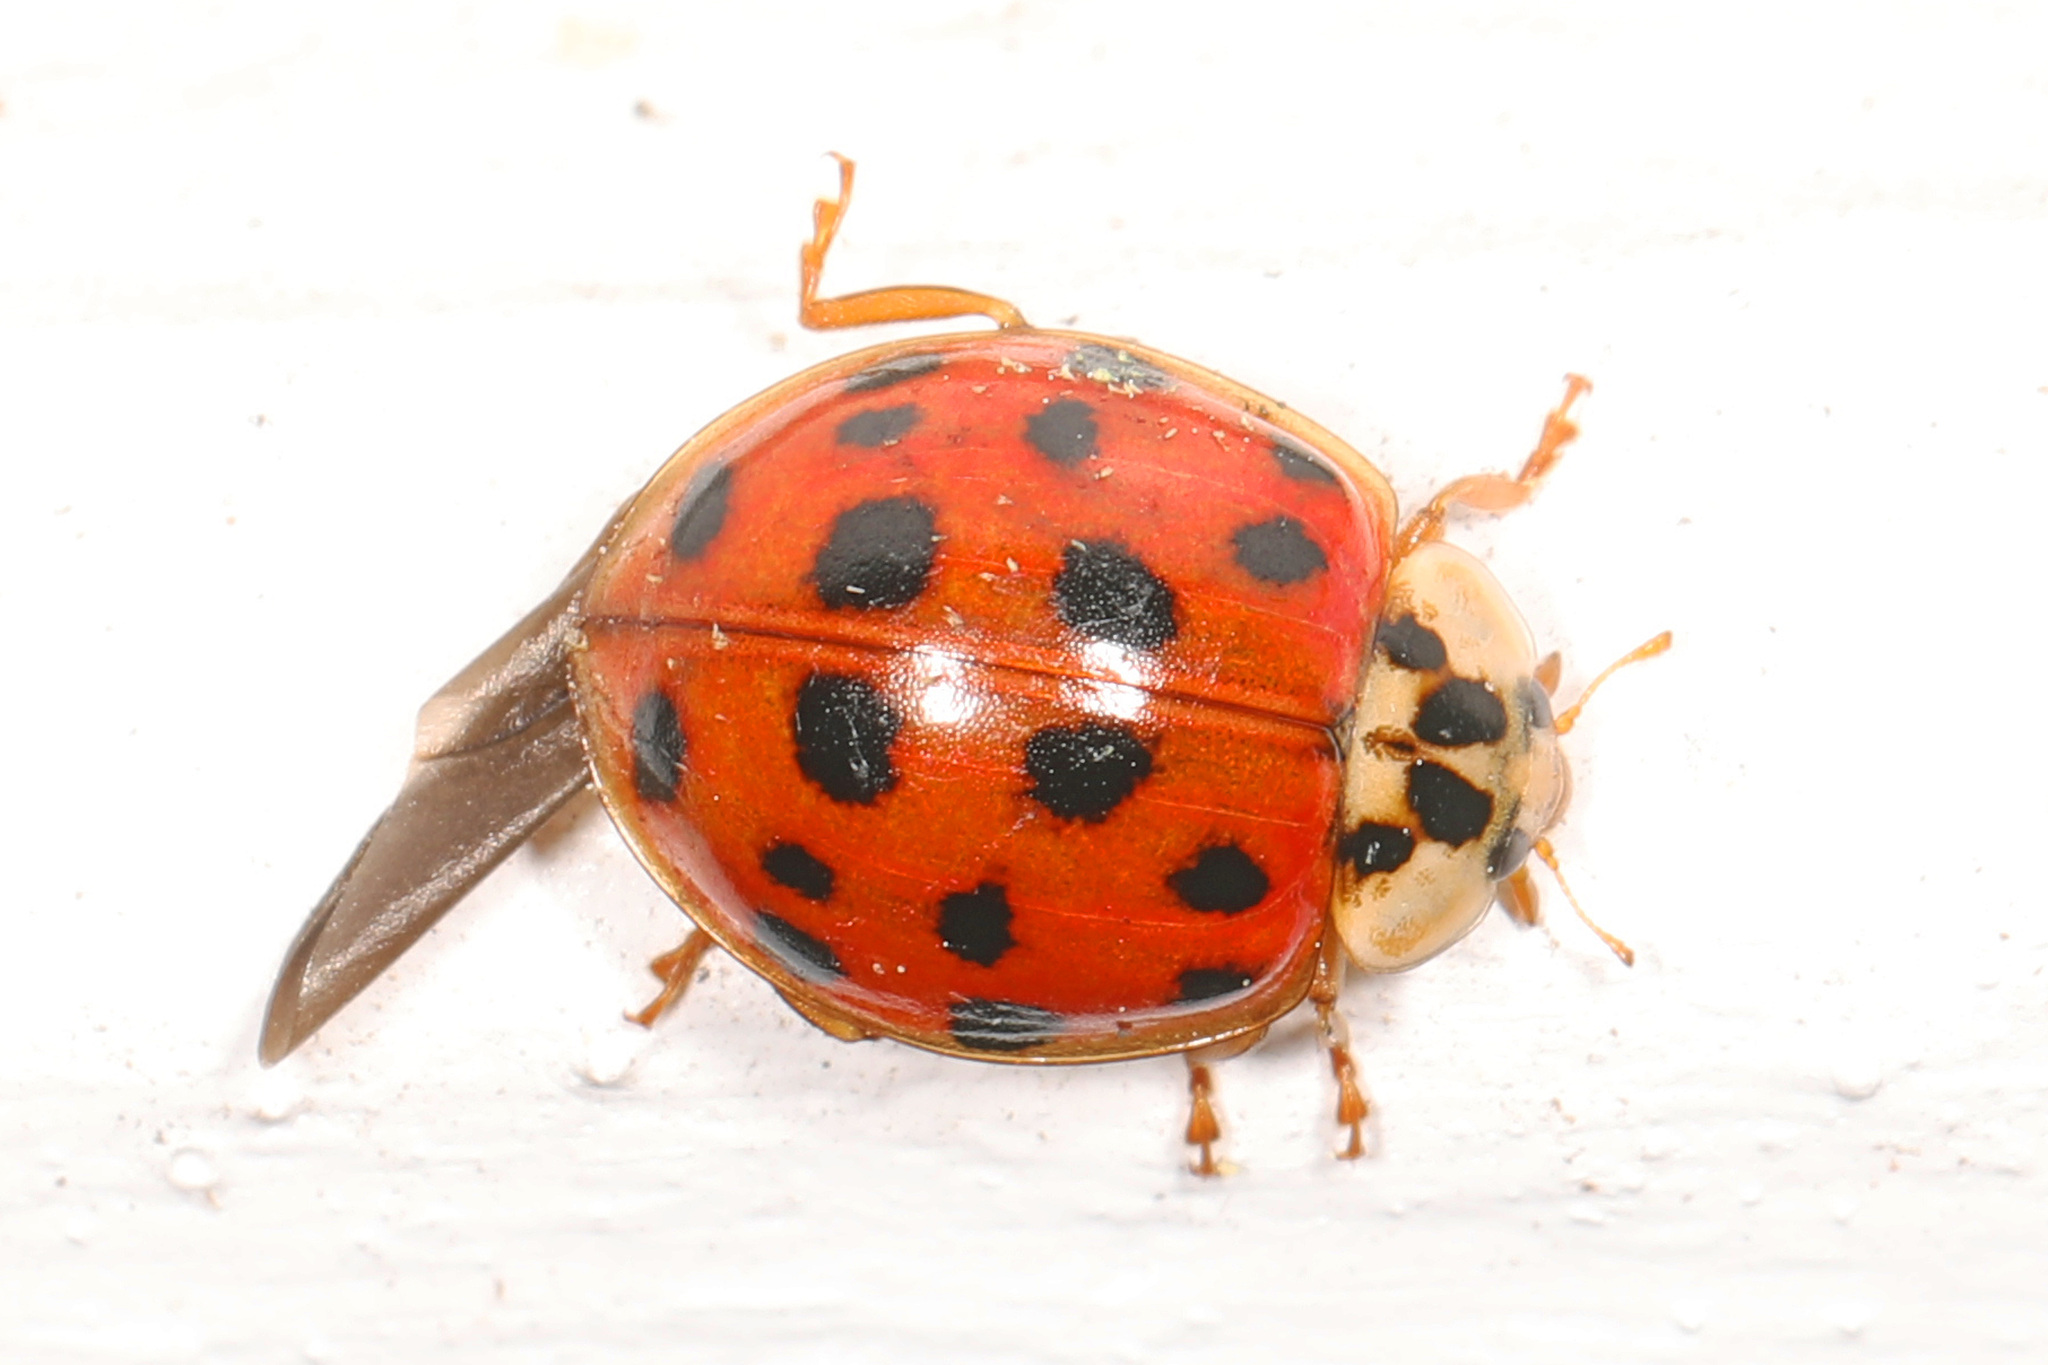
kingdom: Animalia
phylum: Arthropoda
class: Insecta
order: Coleoptera
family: Coccinellidae
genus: Harmonia
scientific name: Harmonia axyridis
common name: Harlequin ladybird
